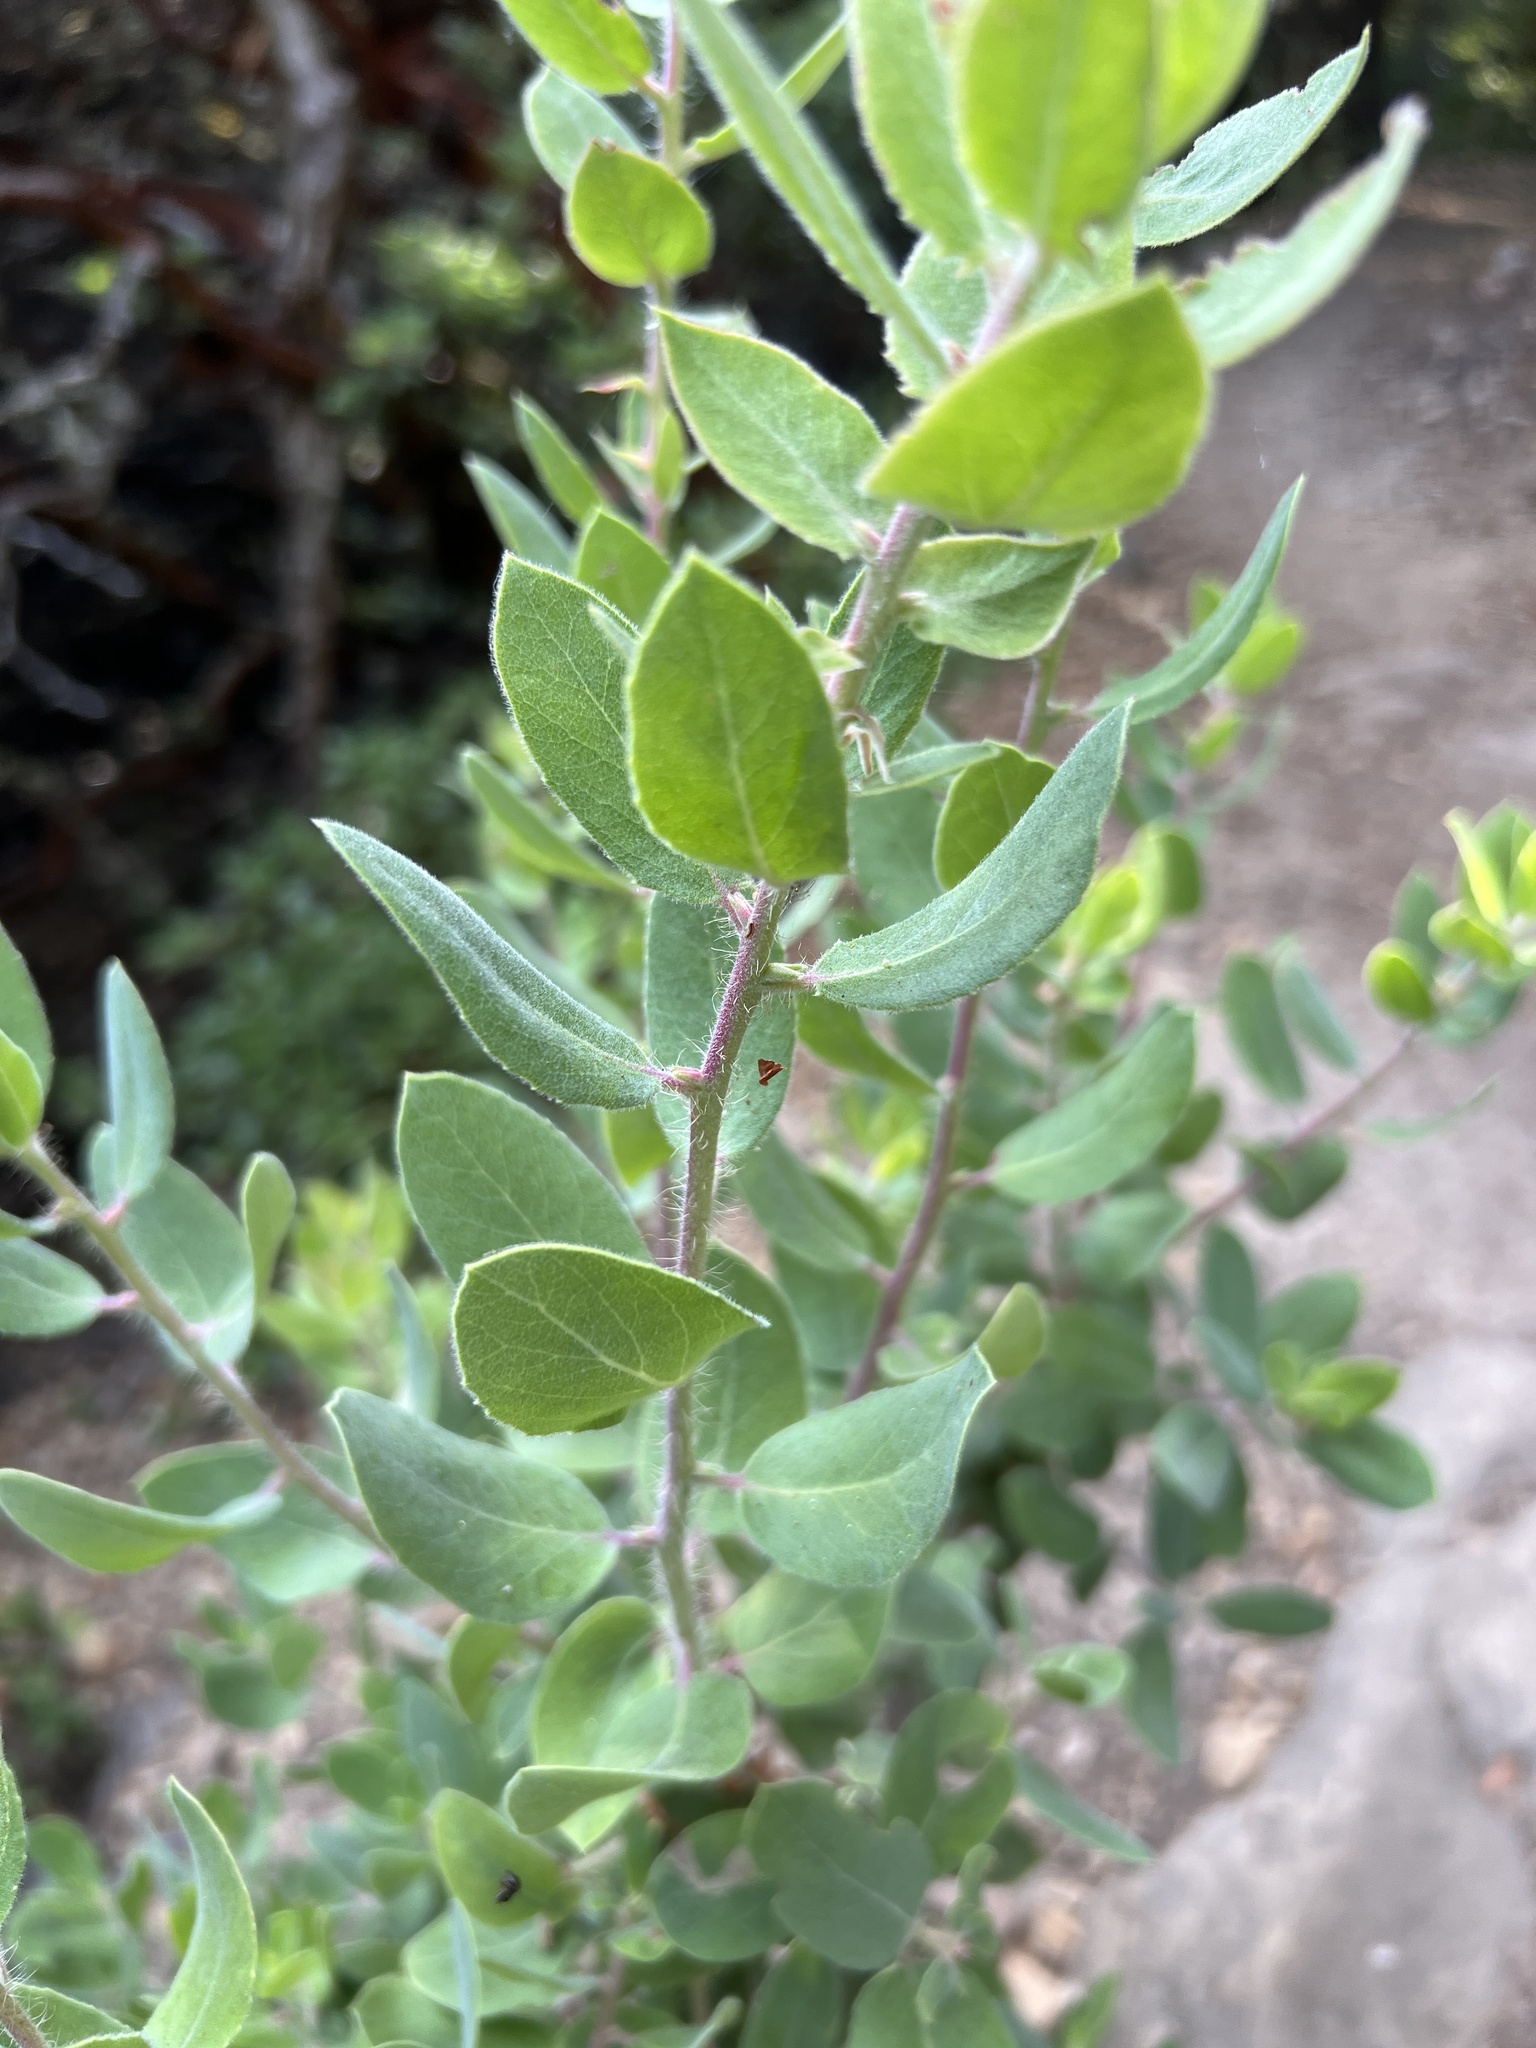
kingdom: Plantae
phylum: Tracheophyta
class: Magnoliopsida
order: Ericales
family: Ericaceae
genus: Arctostaphylos
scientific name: Arctostaphylos crustacea
